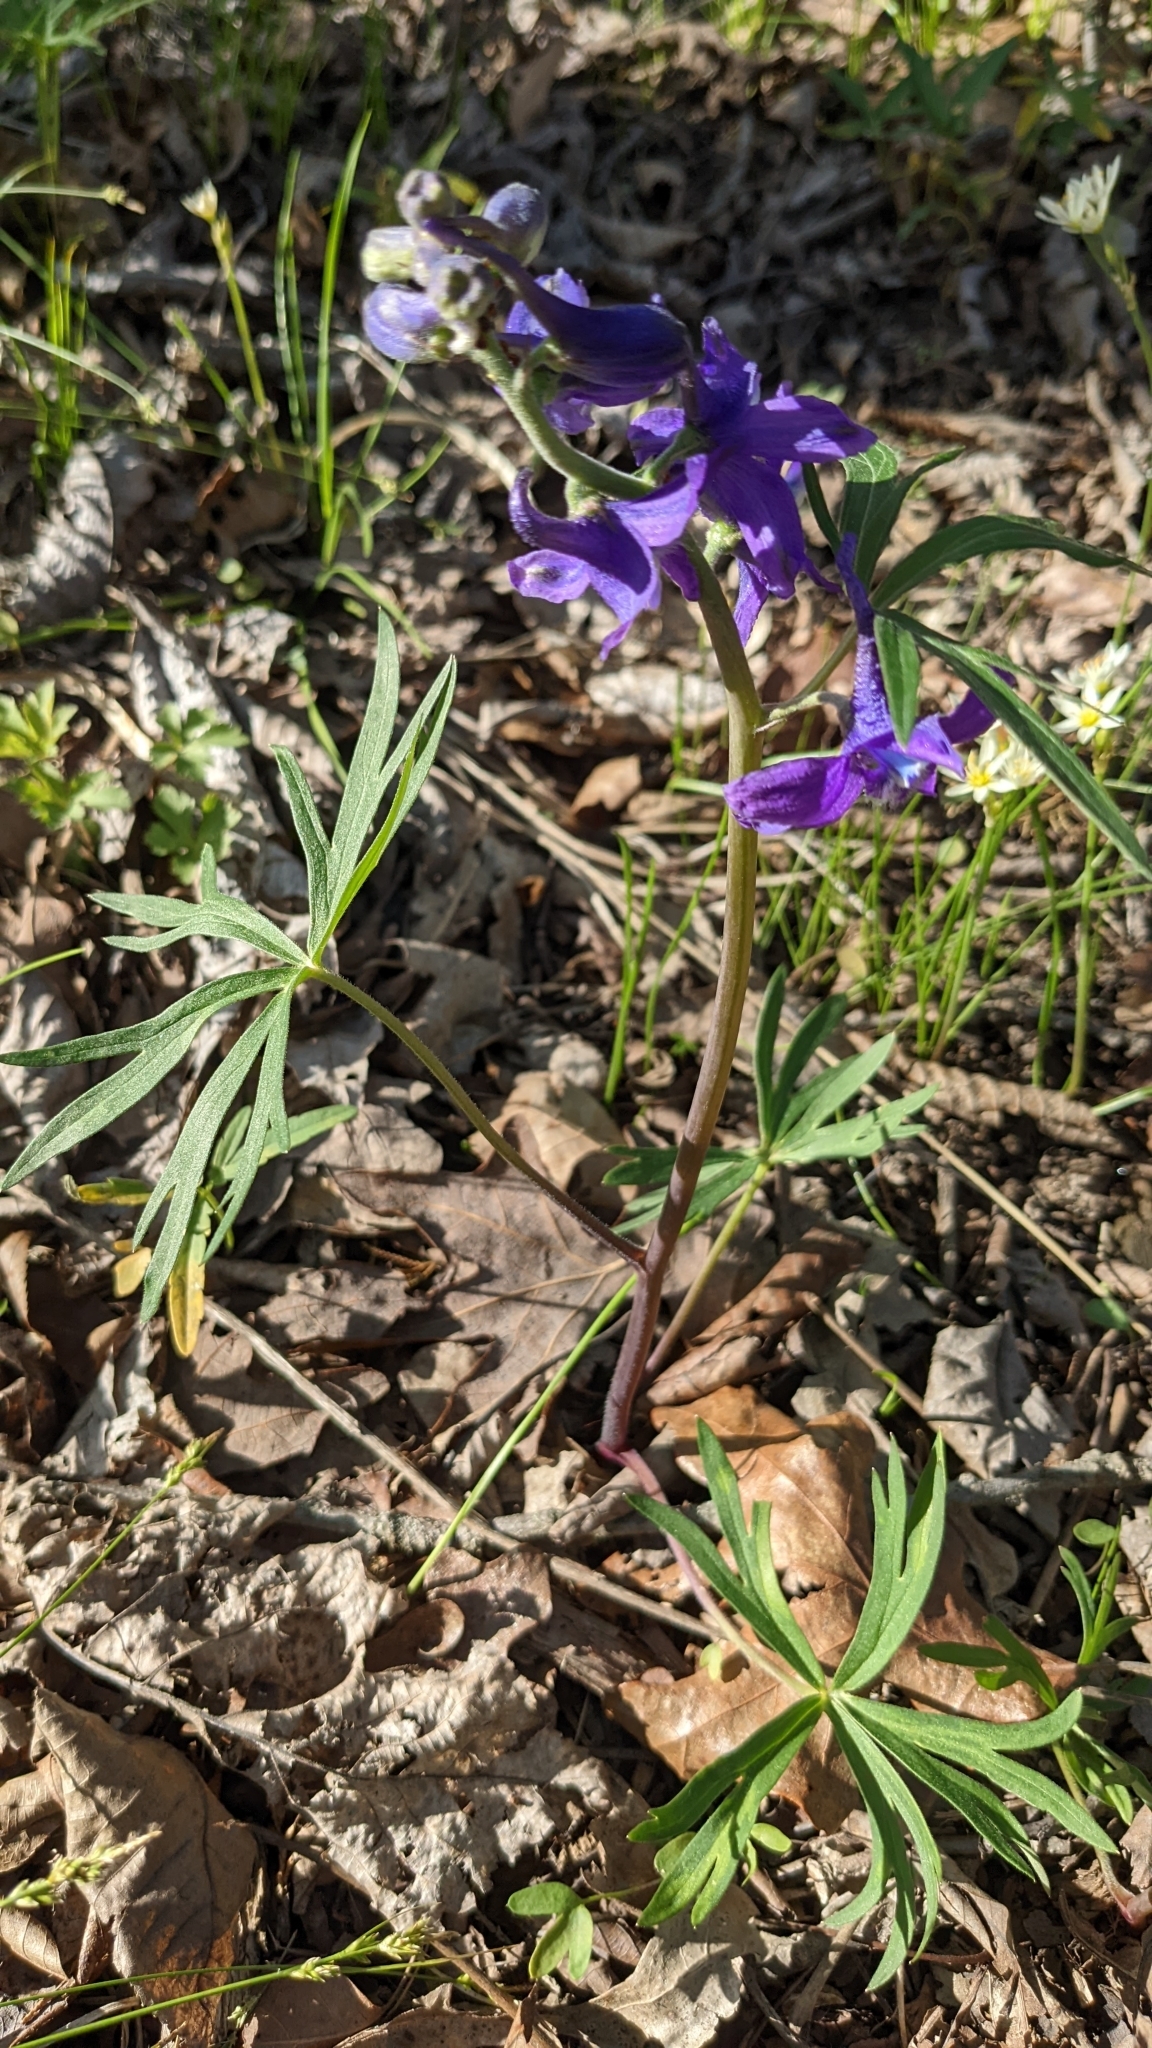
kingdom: Plantae
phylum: Tracheophyta
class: Magnoliopsida
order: Ranunculales
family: Ranunculaceae
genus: Delphinium
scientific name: Delphinium tricorne
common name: Dwarf larkspur
